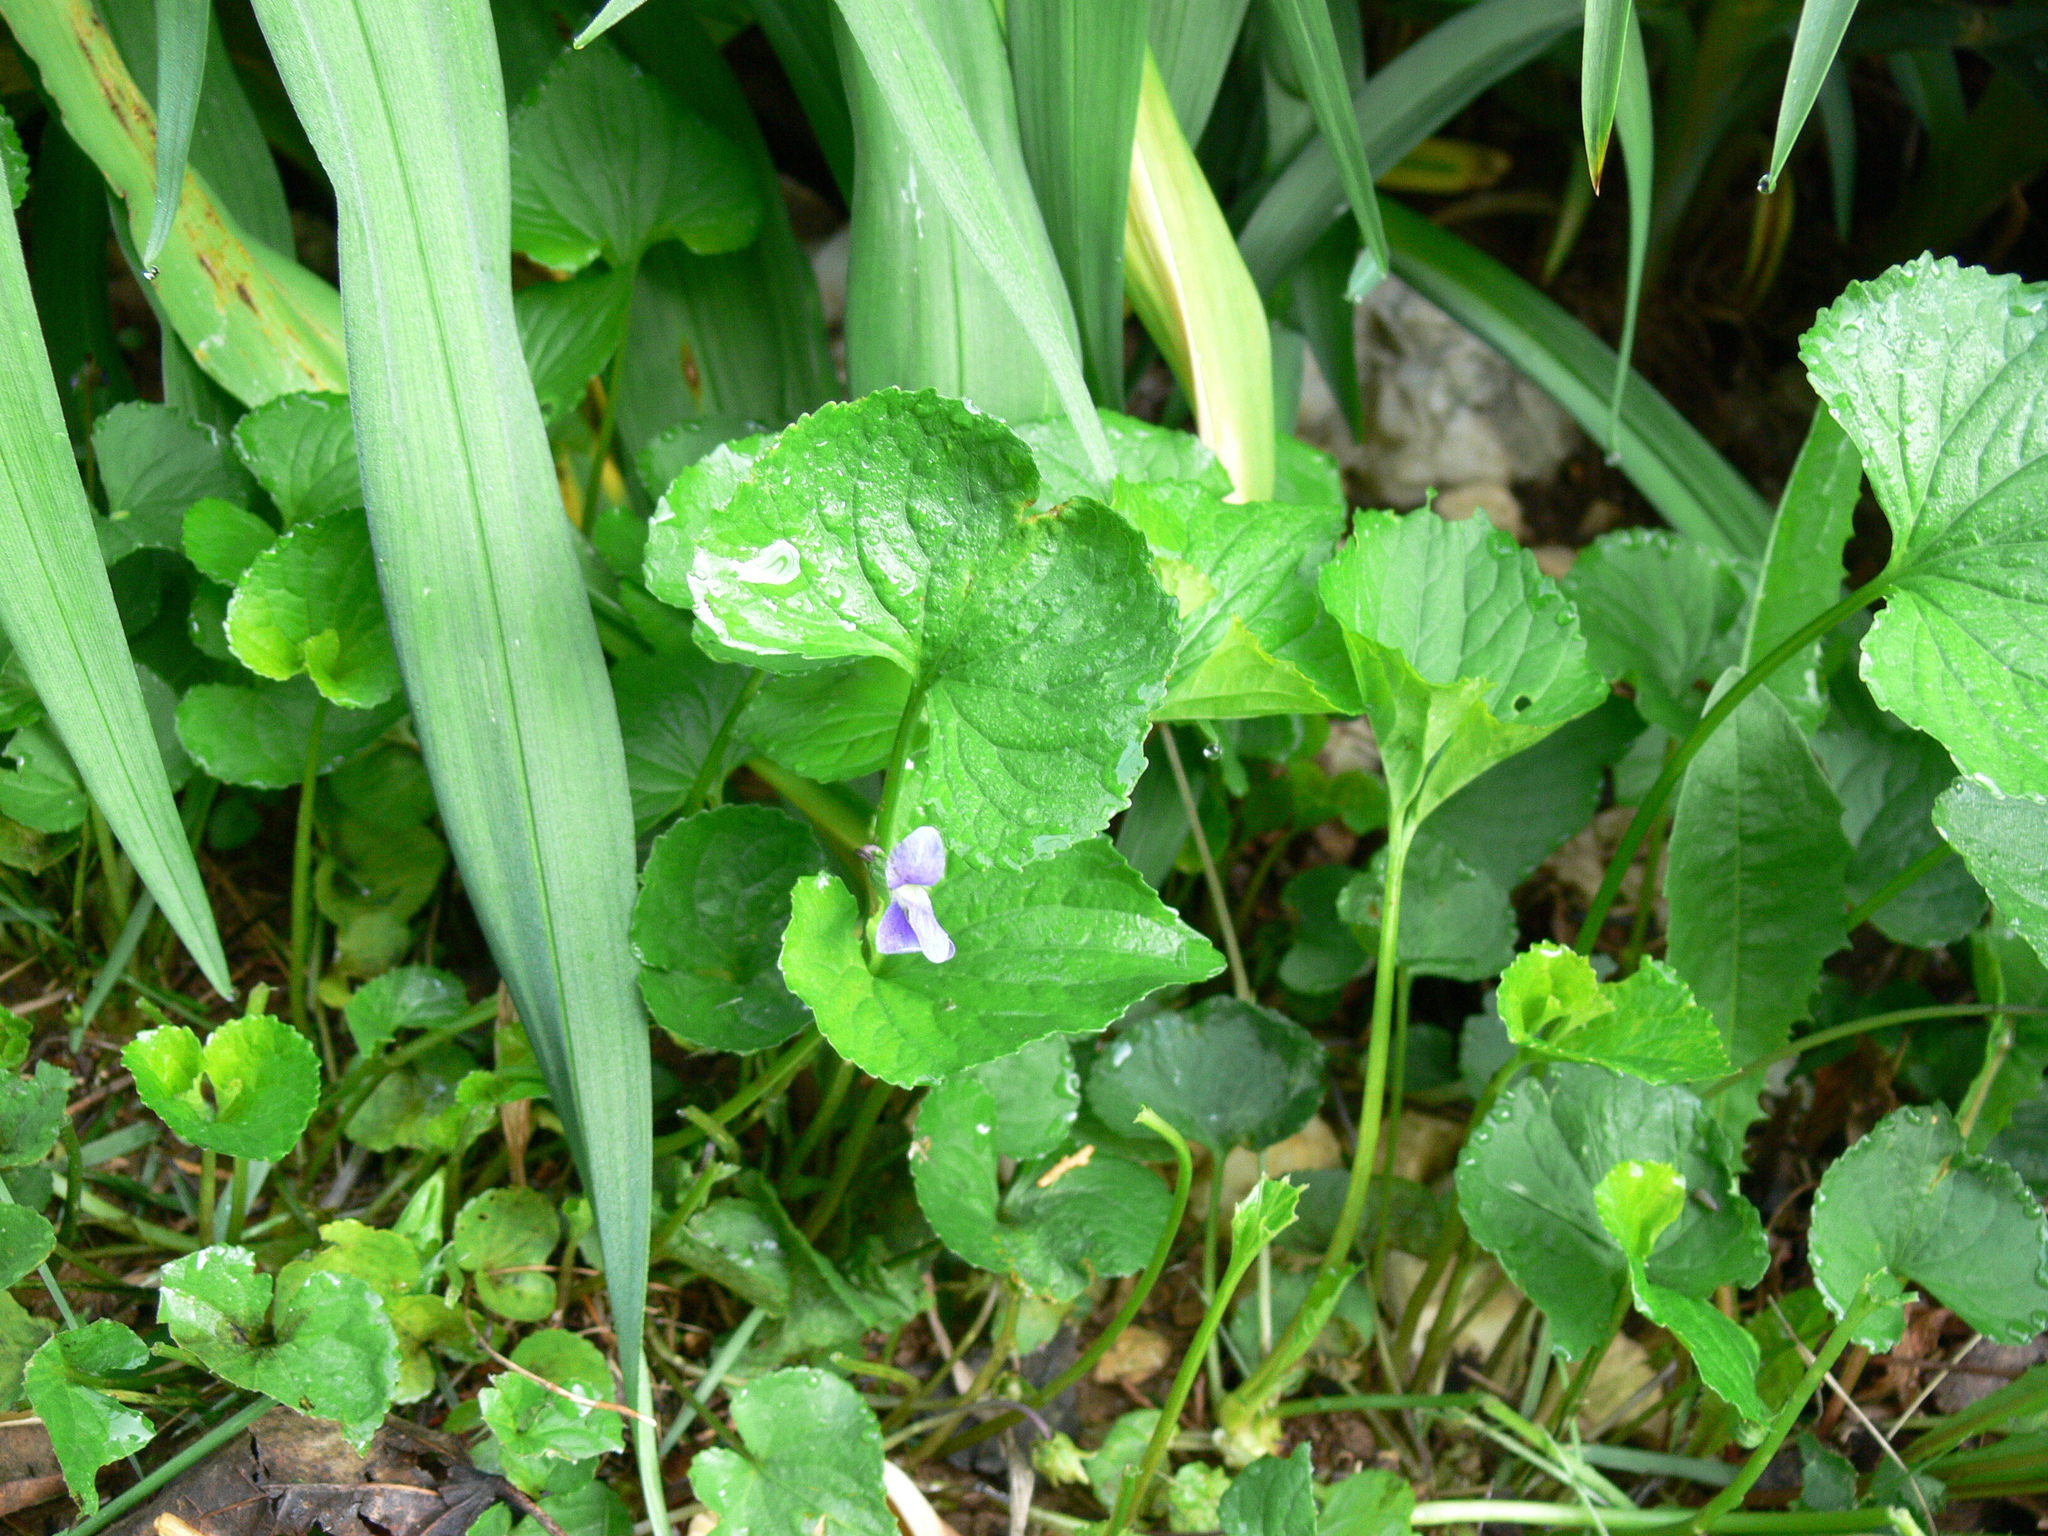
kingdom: Plantae
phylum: Tracheophyta
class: Magnoliopsida
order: Malpighiales
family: Violaceae
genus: Viola
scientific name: Viola sororia
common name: Dooryard violet
